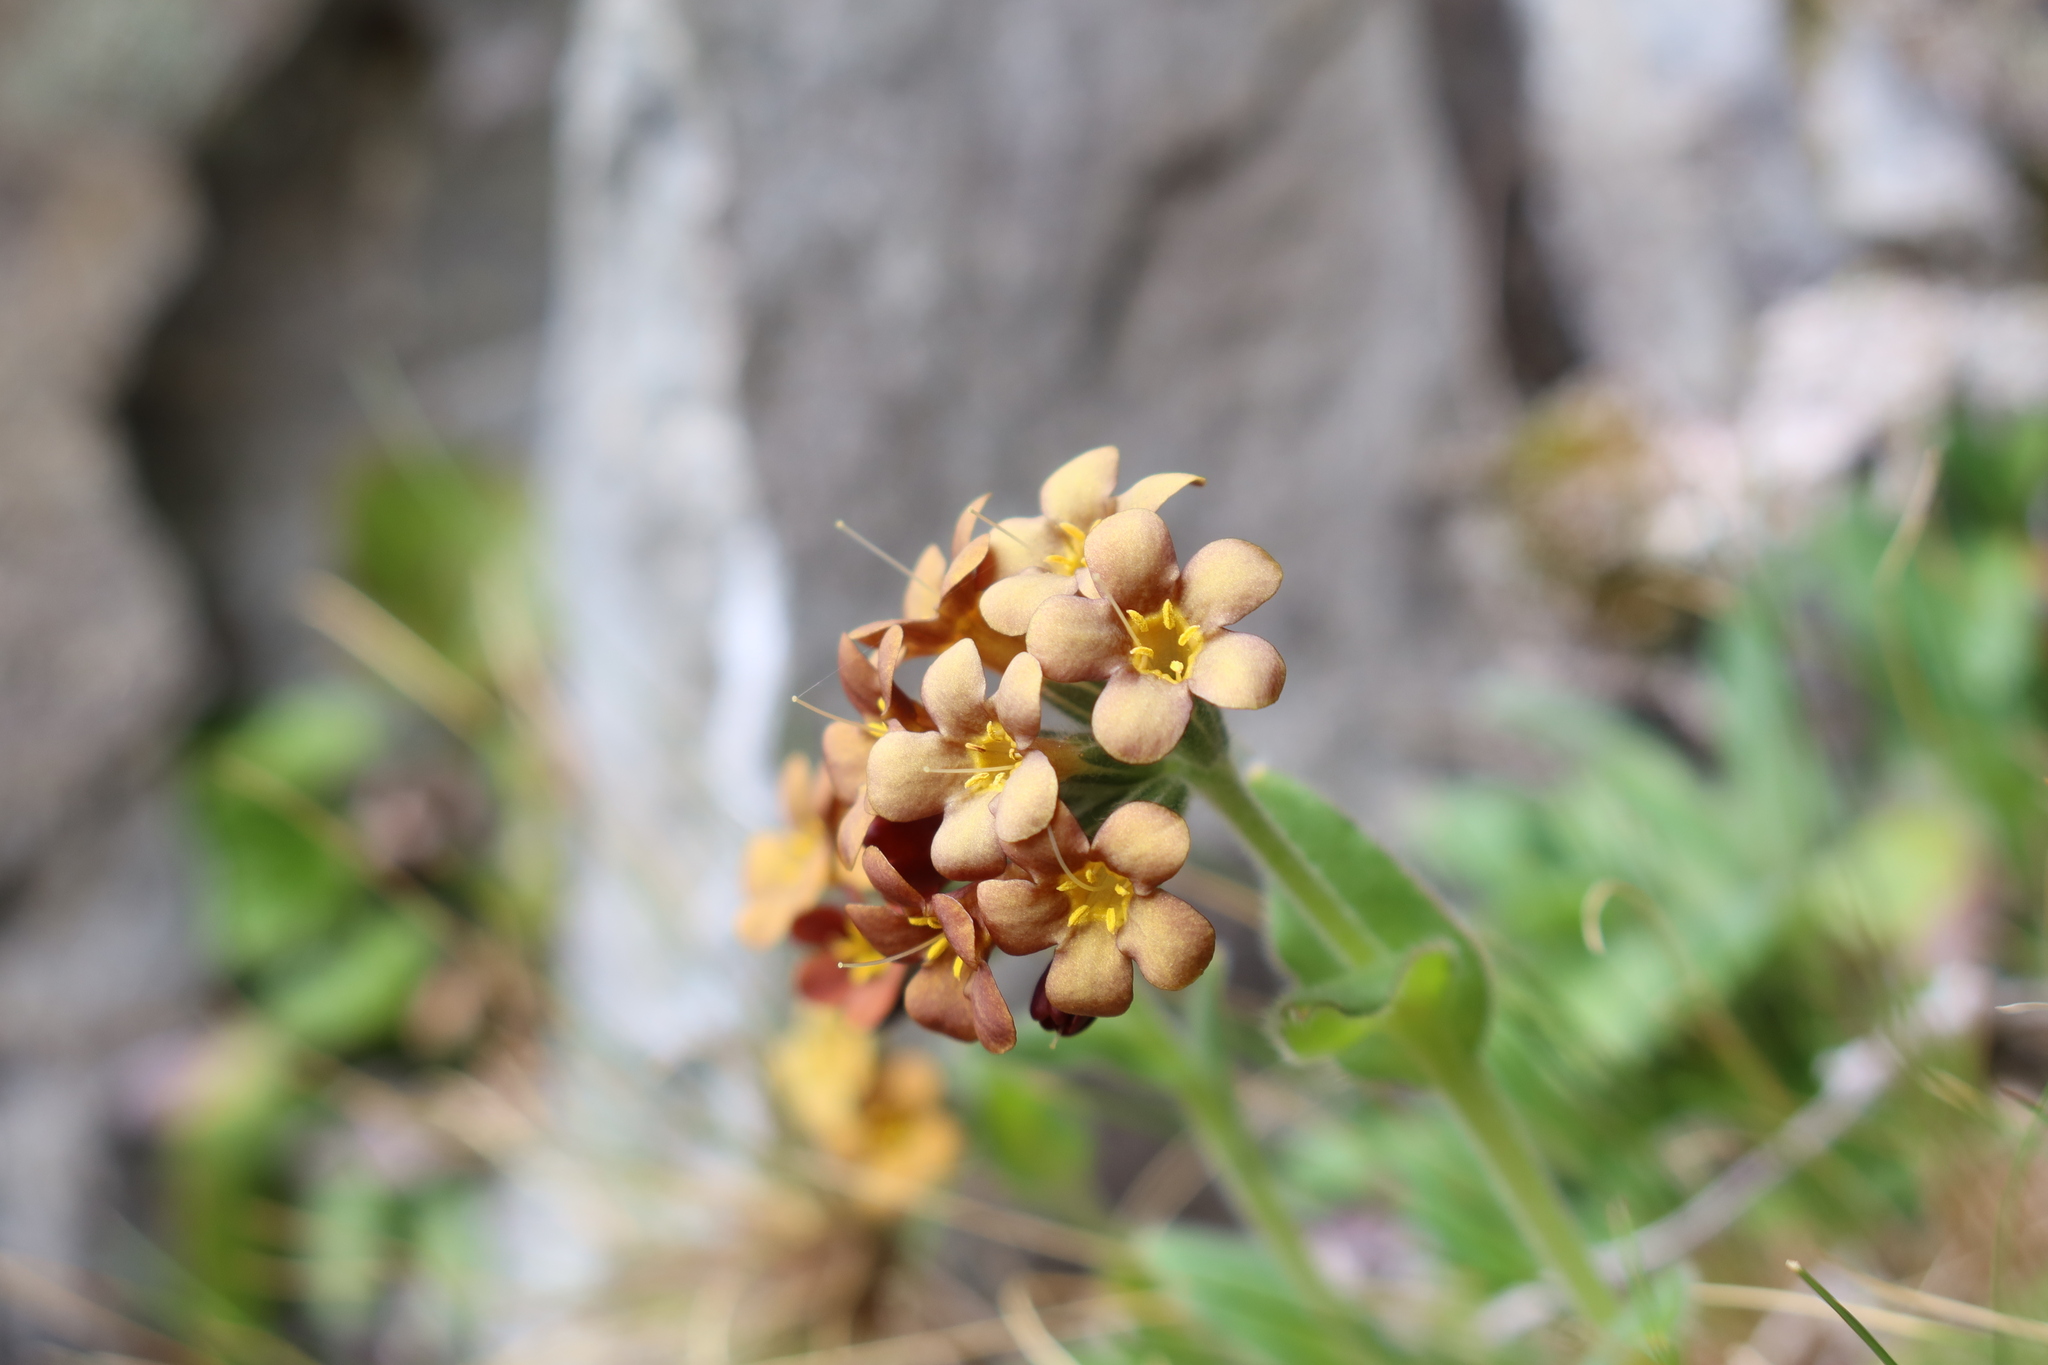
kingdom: Plantae
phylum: Tracheophyta
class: Magnoliopsida
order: Boraginales
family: Boraginaceae
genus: Myosotis
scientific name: Myosotis macrantha
